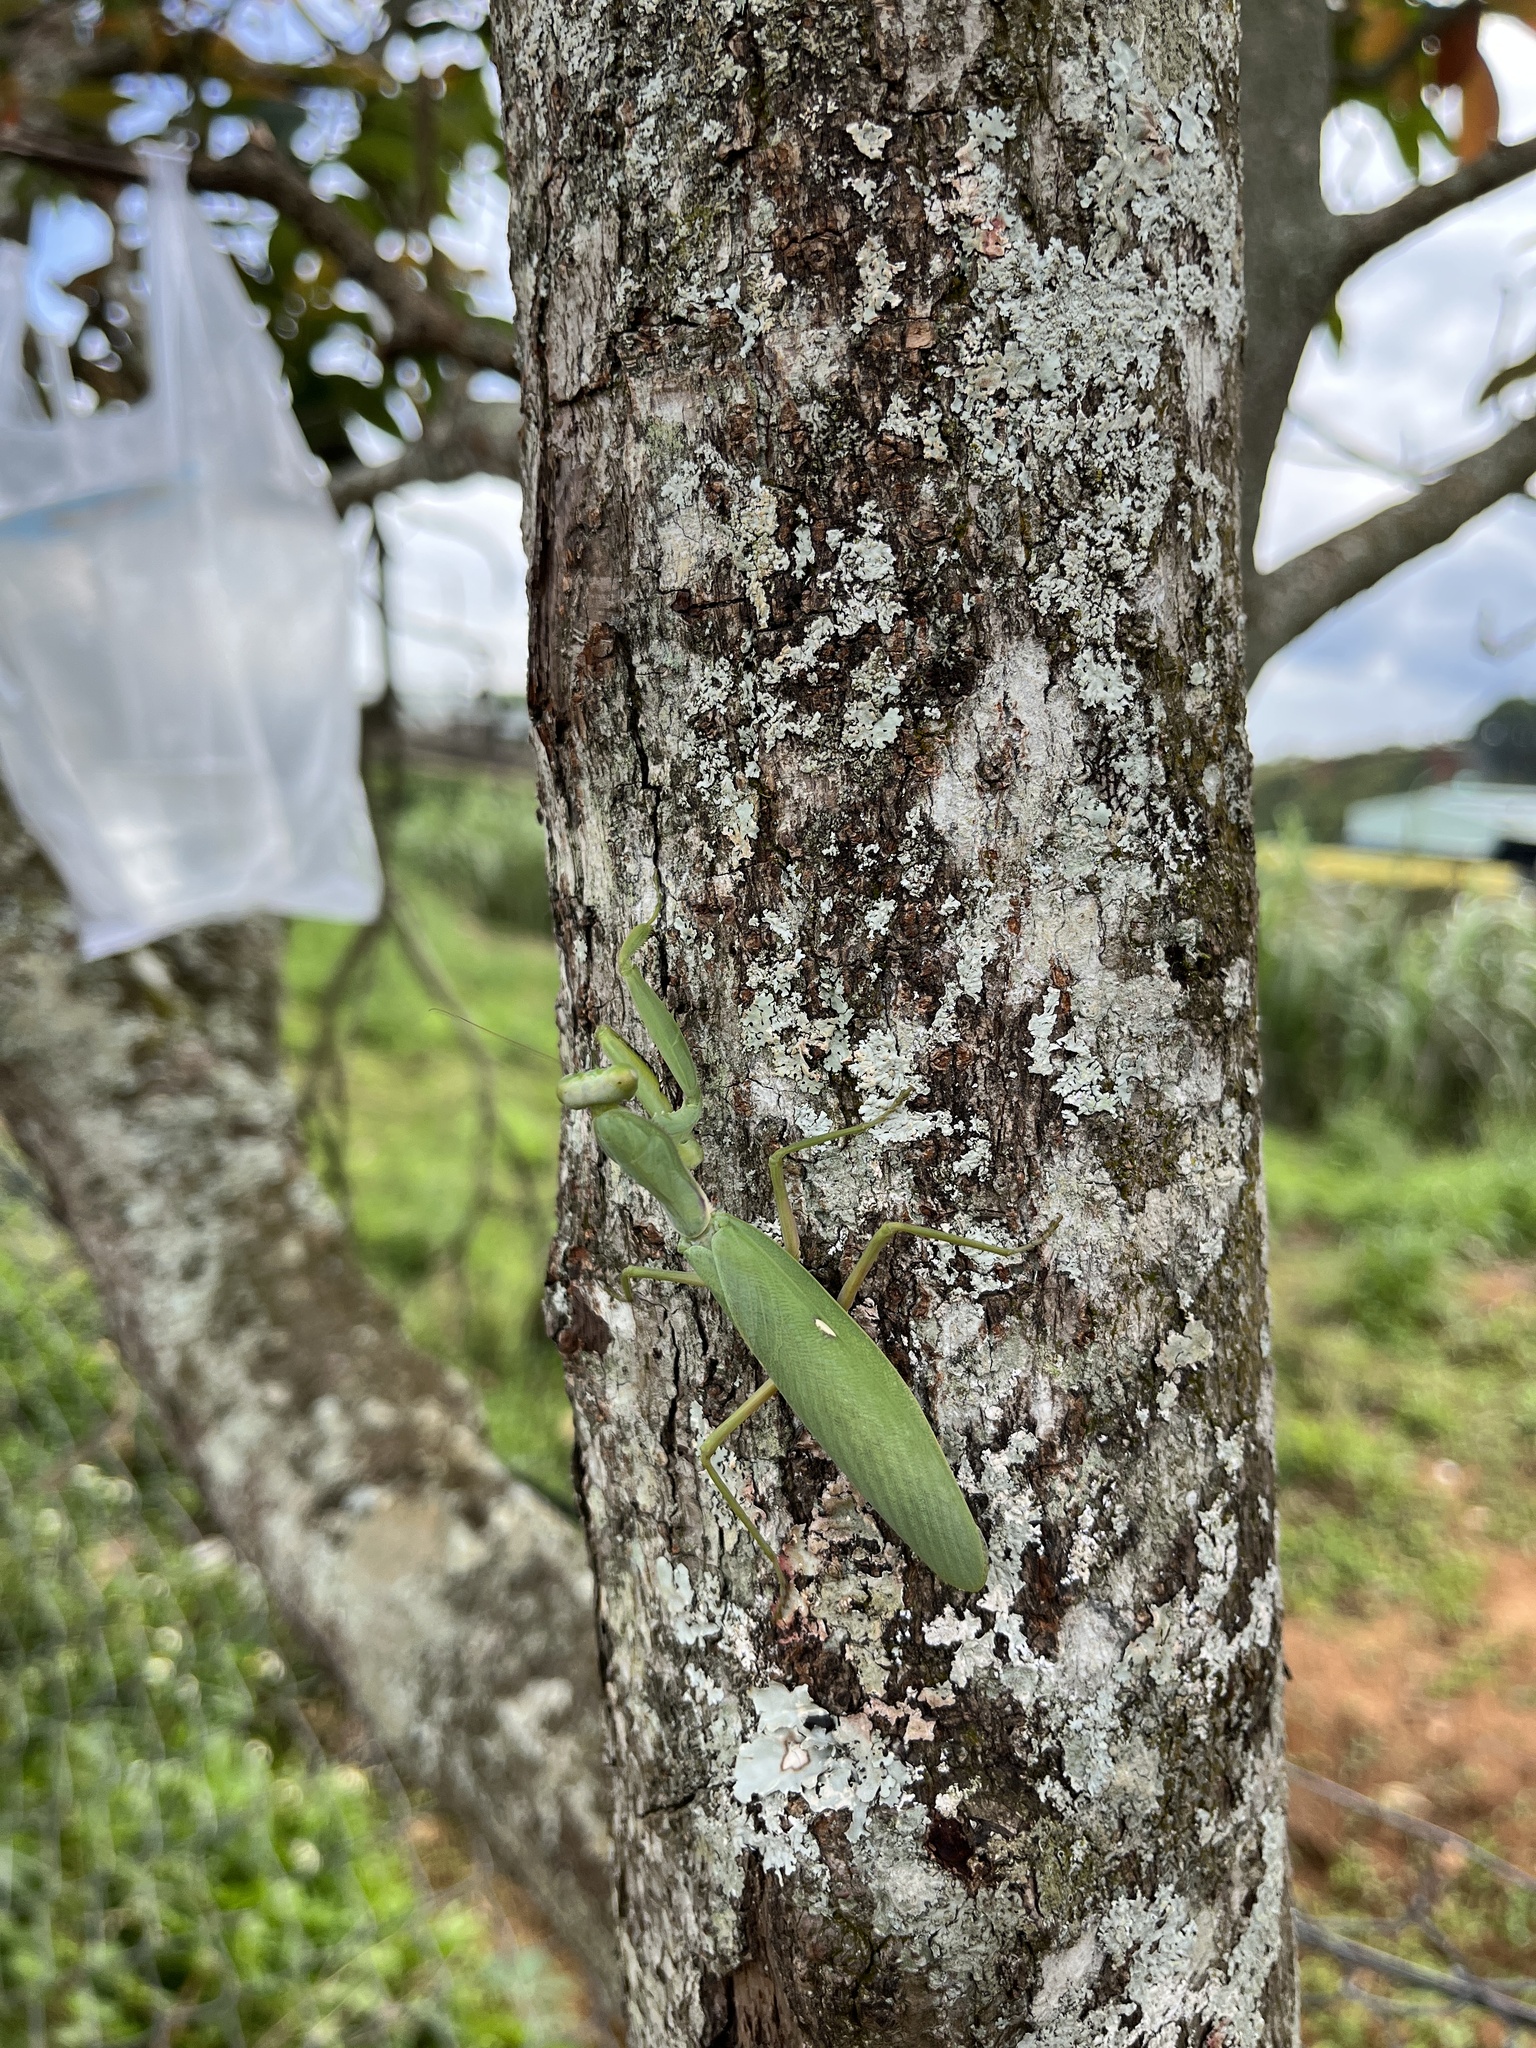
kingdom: Animalia
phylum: Arthropoda
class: Insecta
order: Mantodea
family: Mantidae
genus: Hierodula
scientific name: Hierodula patellifera
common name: Asian mantis
